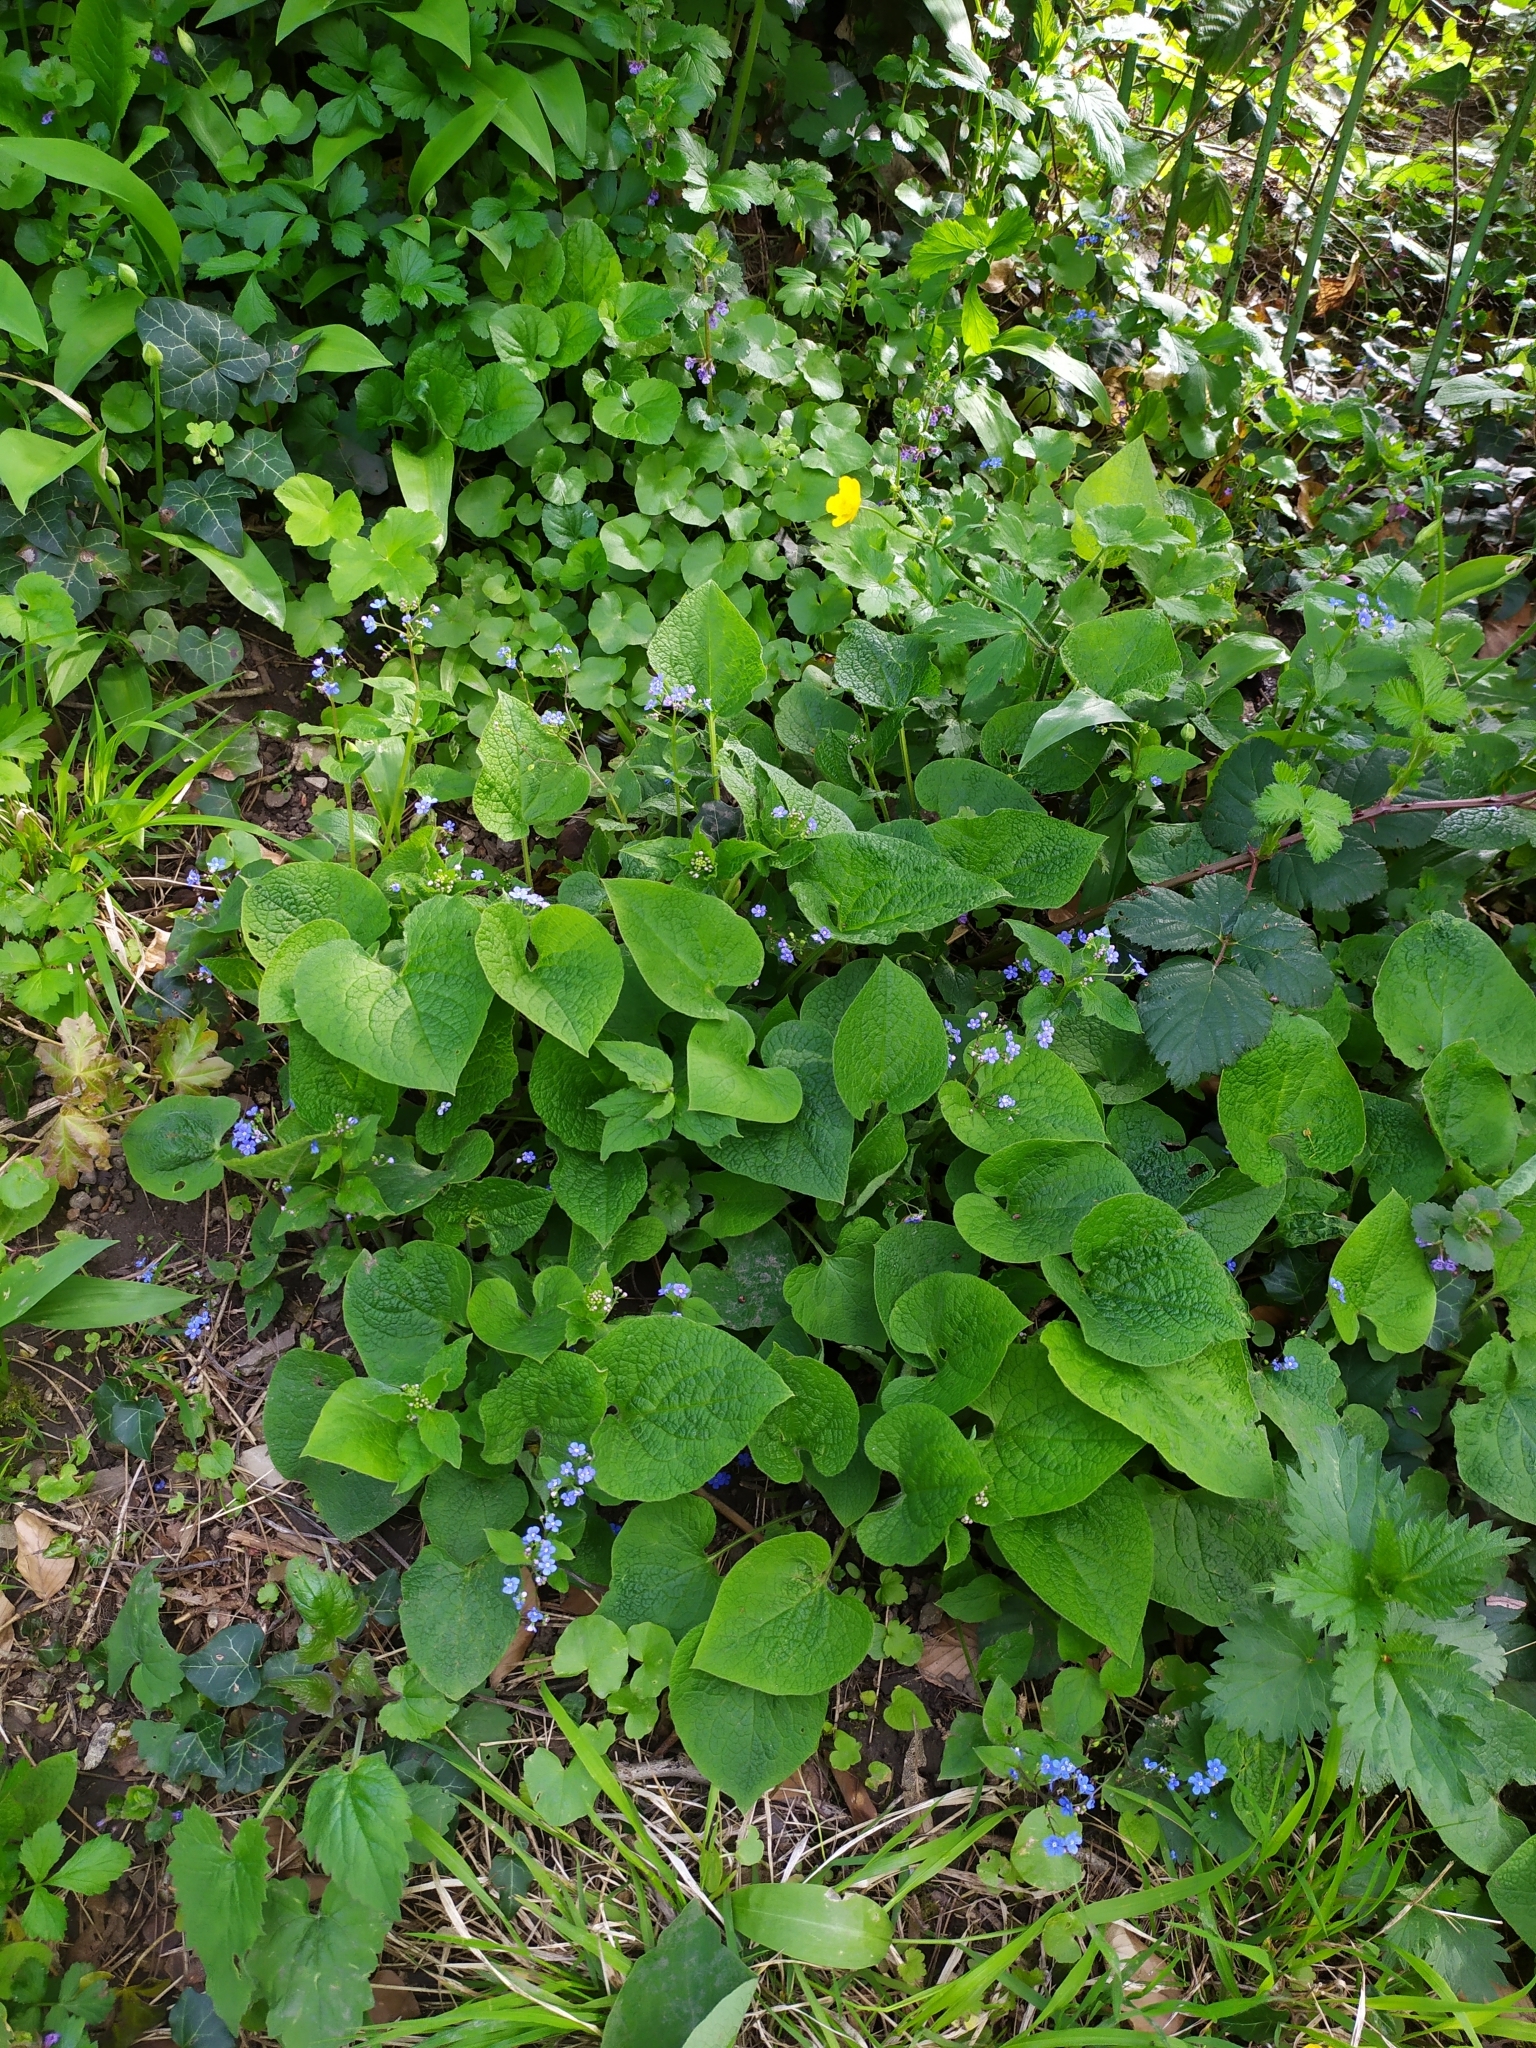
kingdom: Plantae
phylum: Tracheophyta
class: Magnoliopsida
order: Boraginales
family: Boraginaceae
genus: Brunnera
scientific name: Brunnera macrophylla
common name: Great forget-me-not
